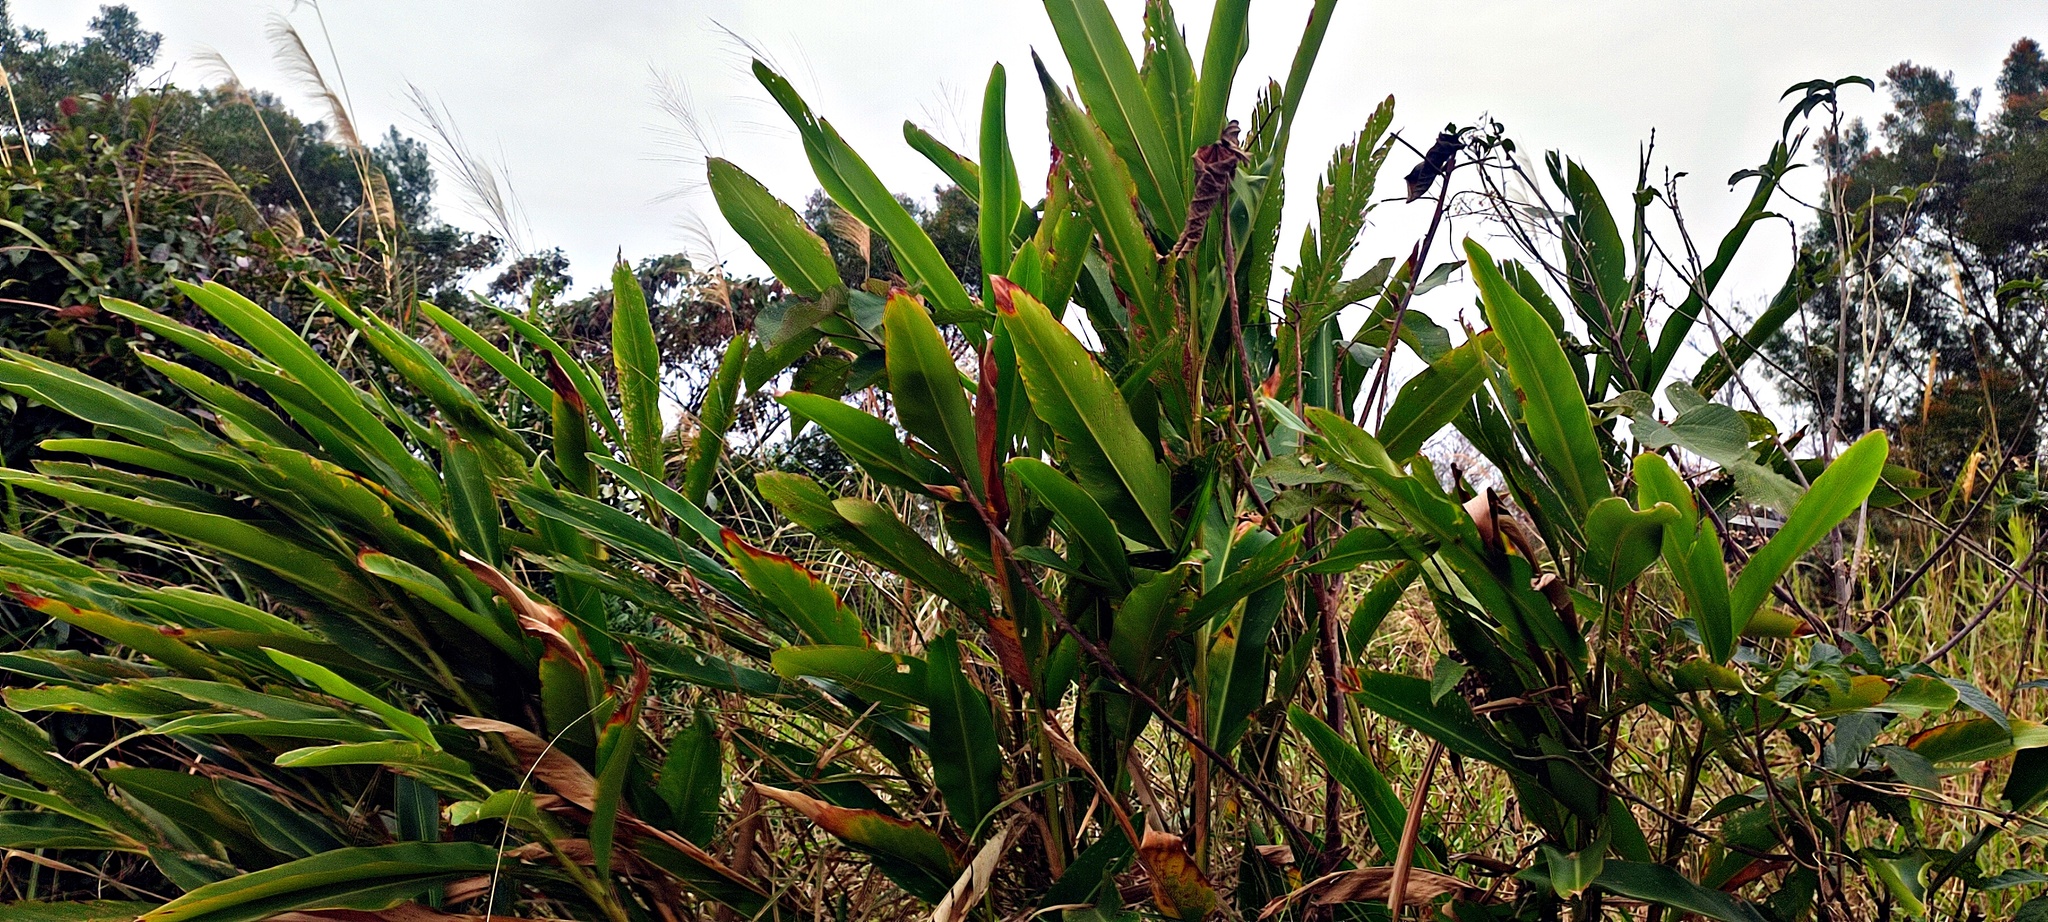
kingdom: Plantae
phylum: Tracheophyta
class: Liliopsida
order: Zingiberales
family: Zingiberaceae
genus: Alpinia
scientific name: Alpinia zerumbet
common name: Shellplant
